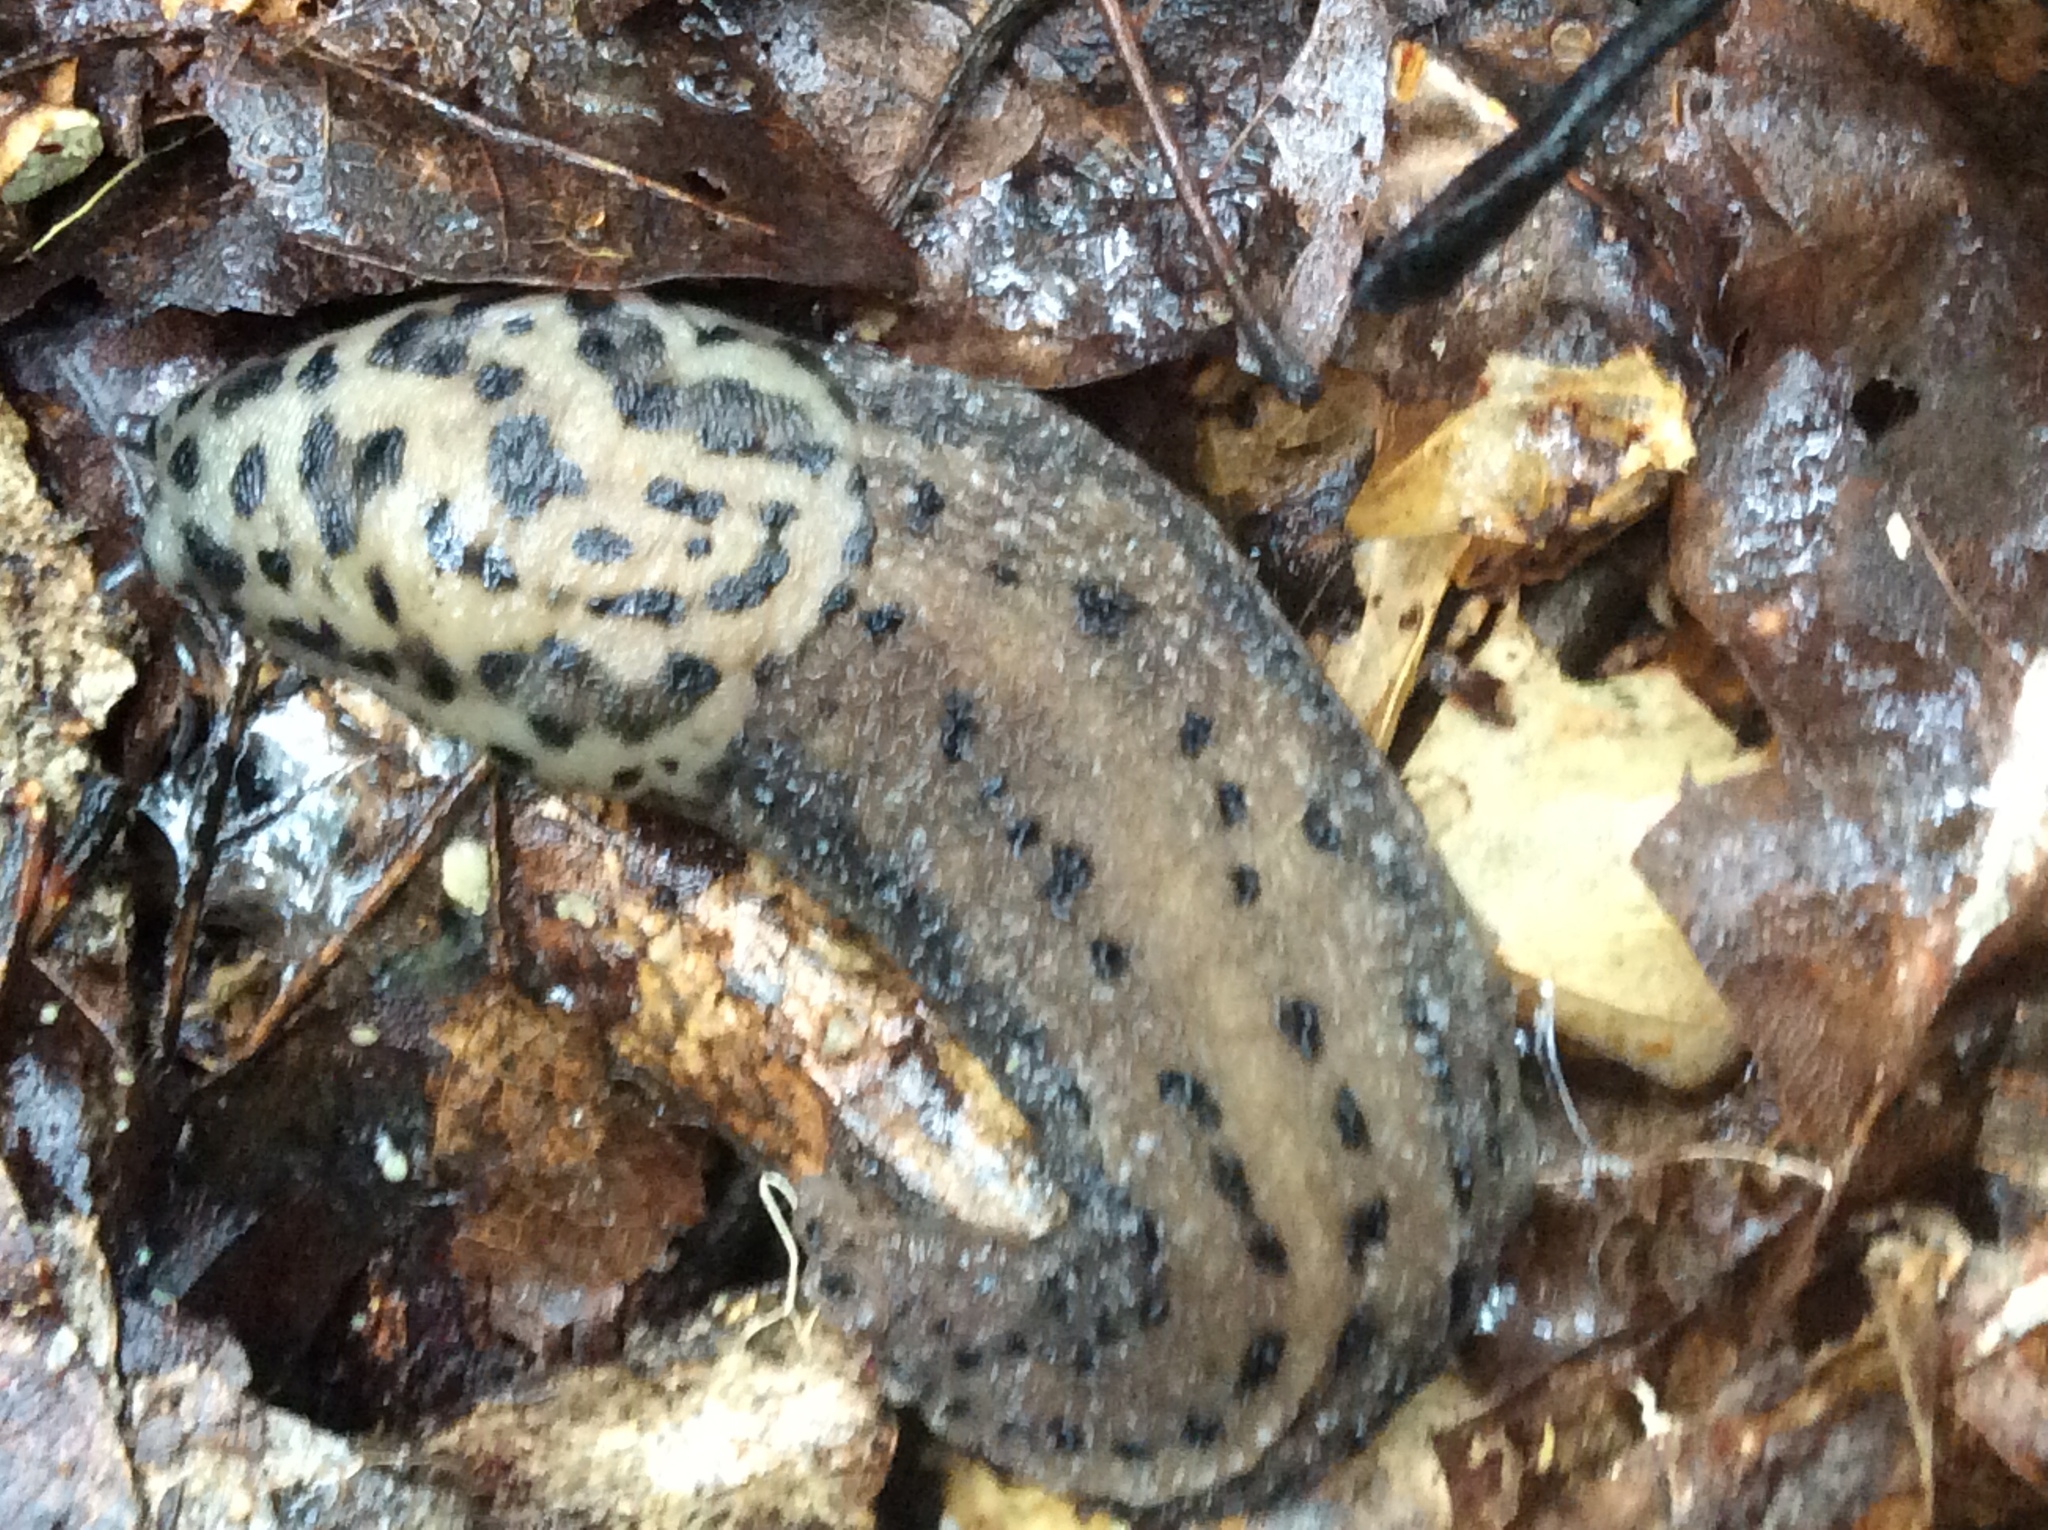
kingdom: Animalia
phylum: Mollusca
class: Gastropoda
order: Stylommatophora
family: Limacidae
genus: Limax
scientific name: Limax maximus
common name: Great grey slug
